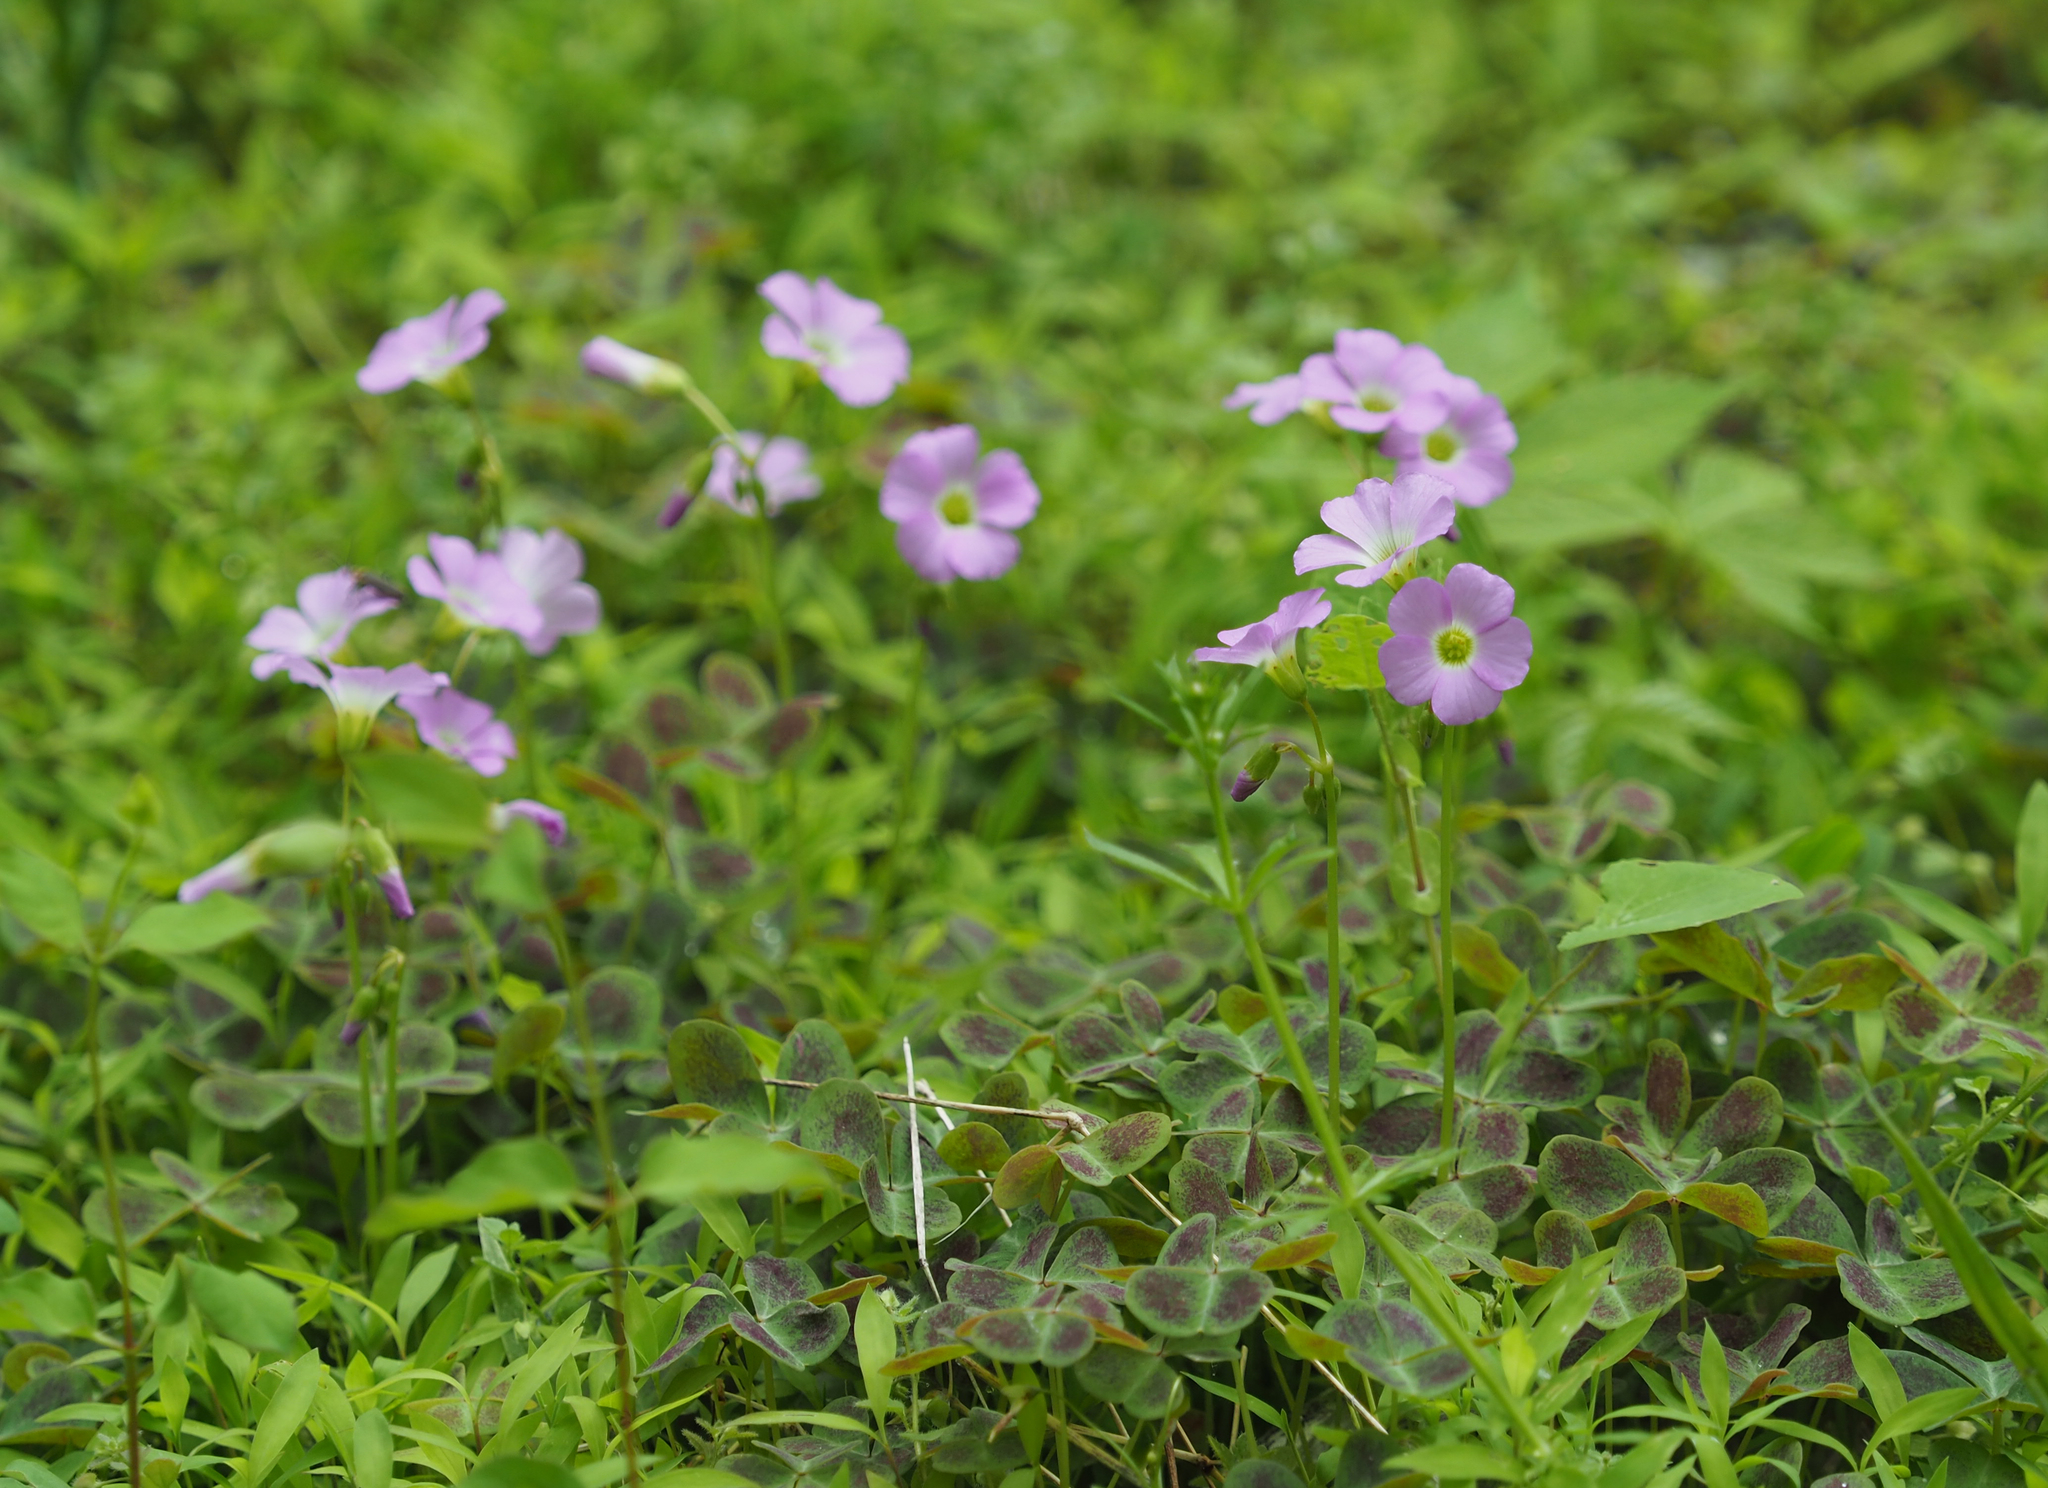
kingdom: Plantae
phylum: Tracheophyta
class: Magnoliopsida
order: Oxalidales
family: Oxalidaceae
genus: Oxalis
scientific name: Oxalis violacea
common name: Violet wood-sorrel
